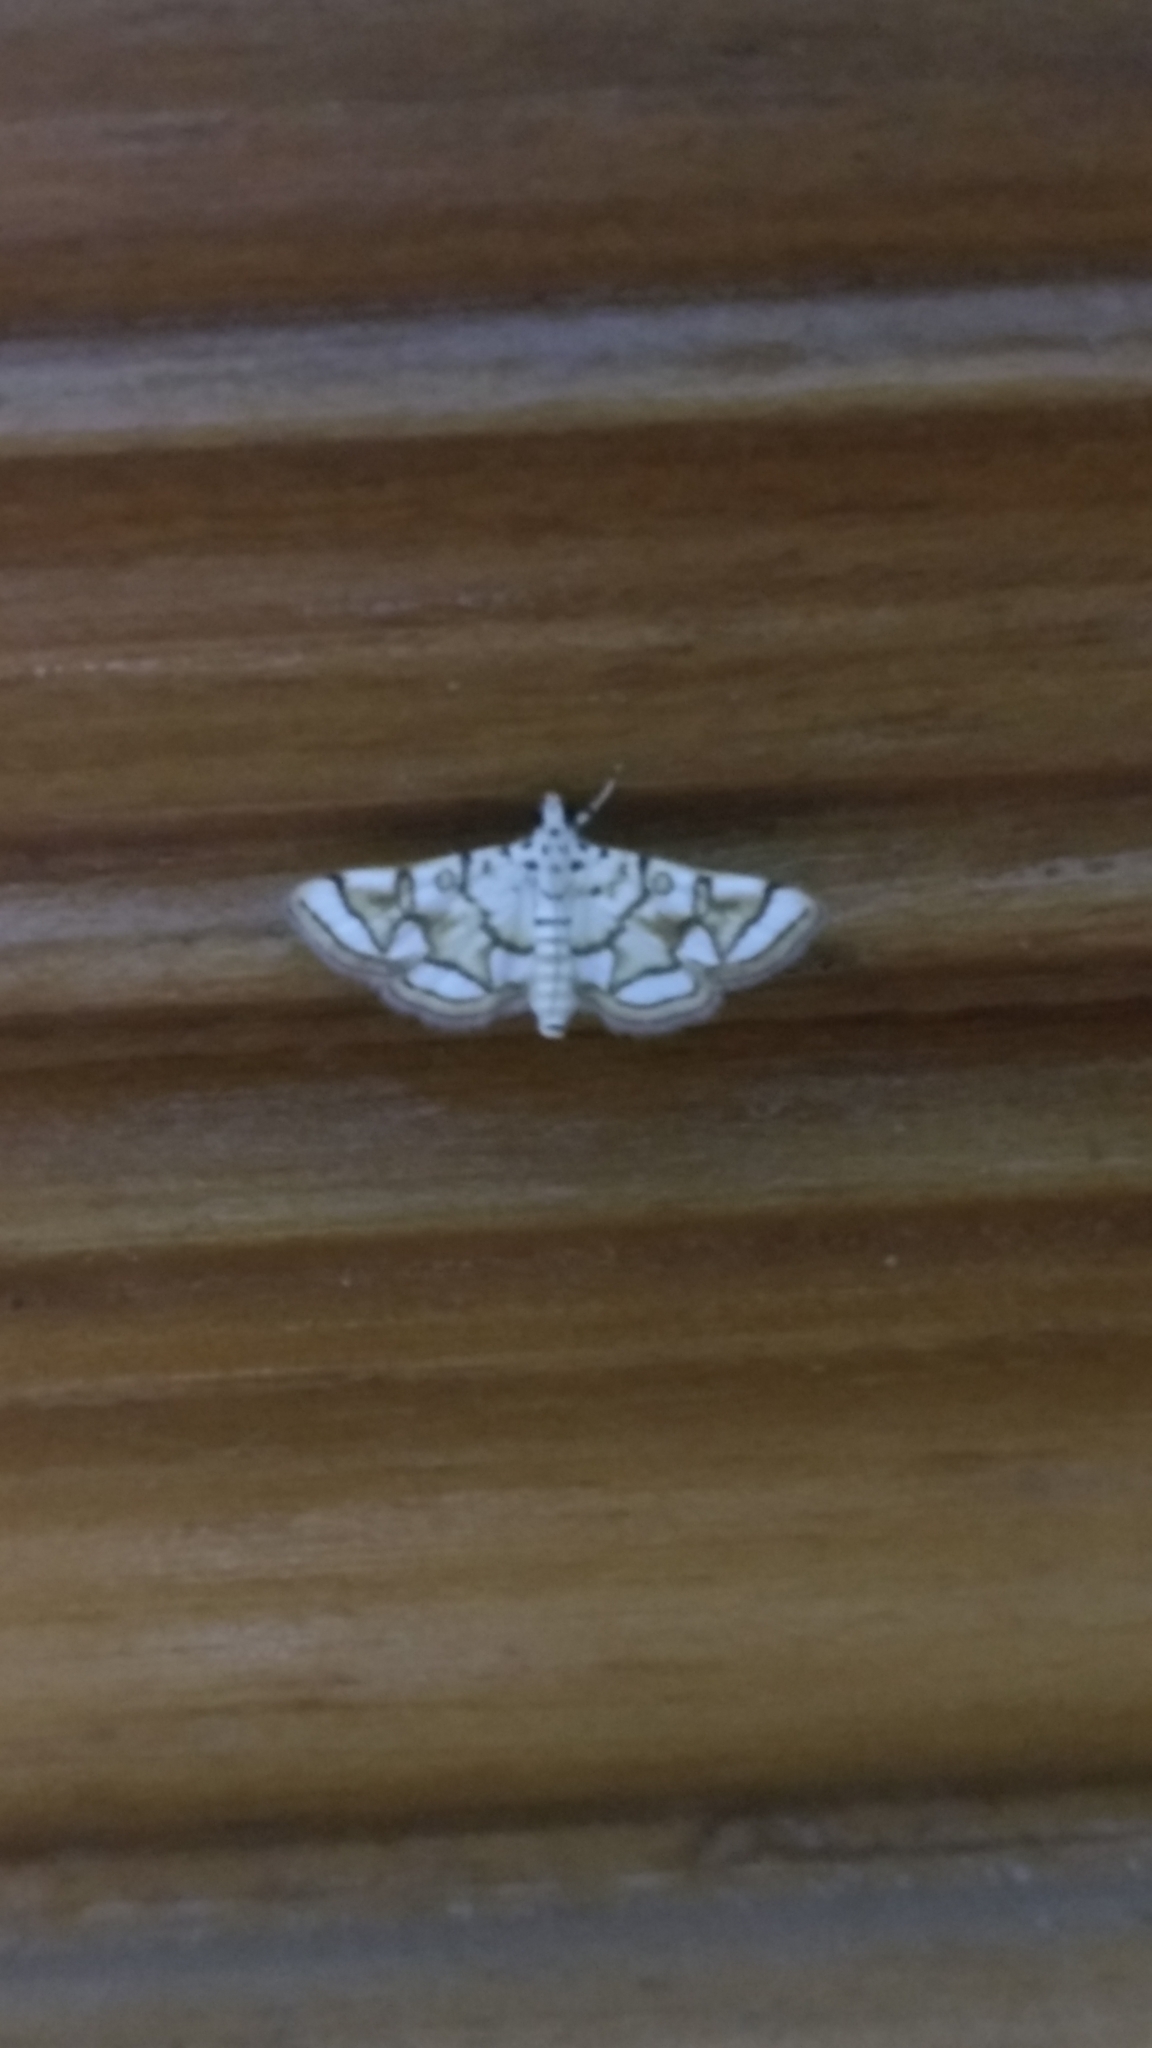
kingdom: Animalia
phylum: Arthropoda
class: Insecta
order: Lepidoptera
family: Crambidae
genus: Elophila
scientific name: Elophila
